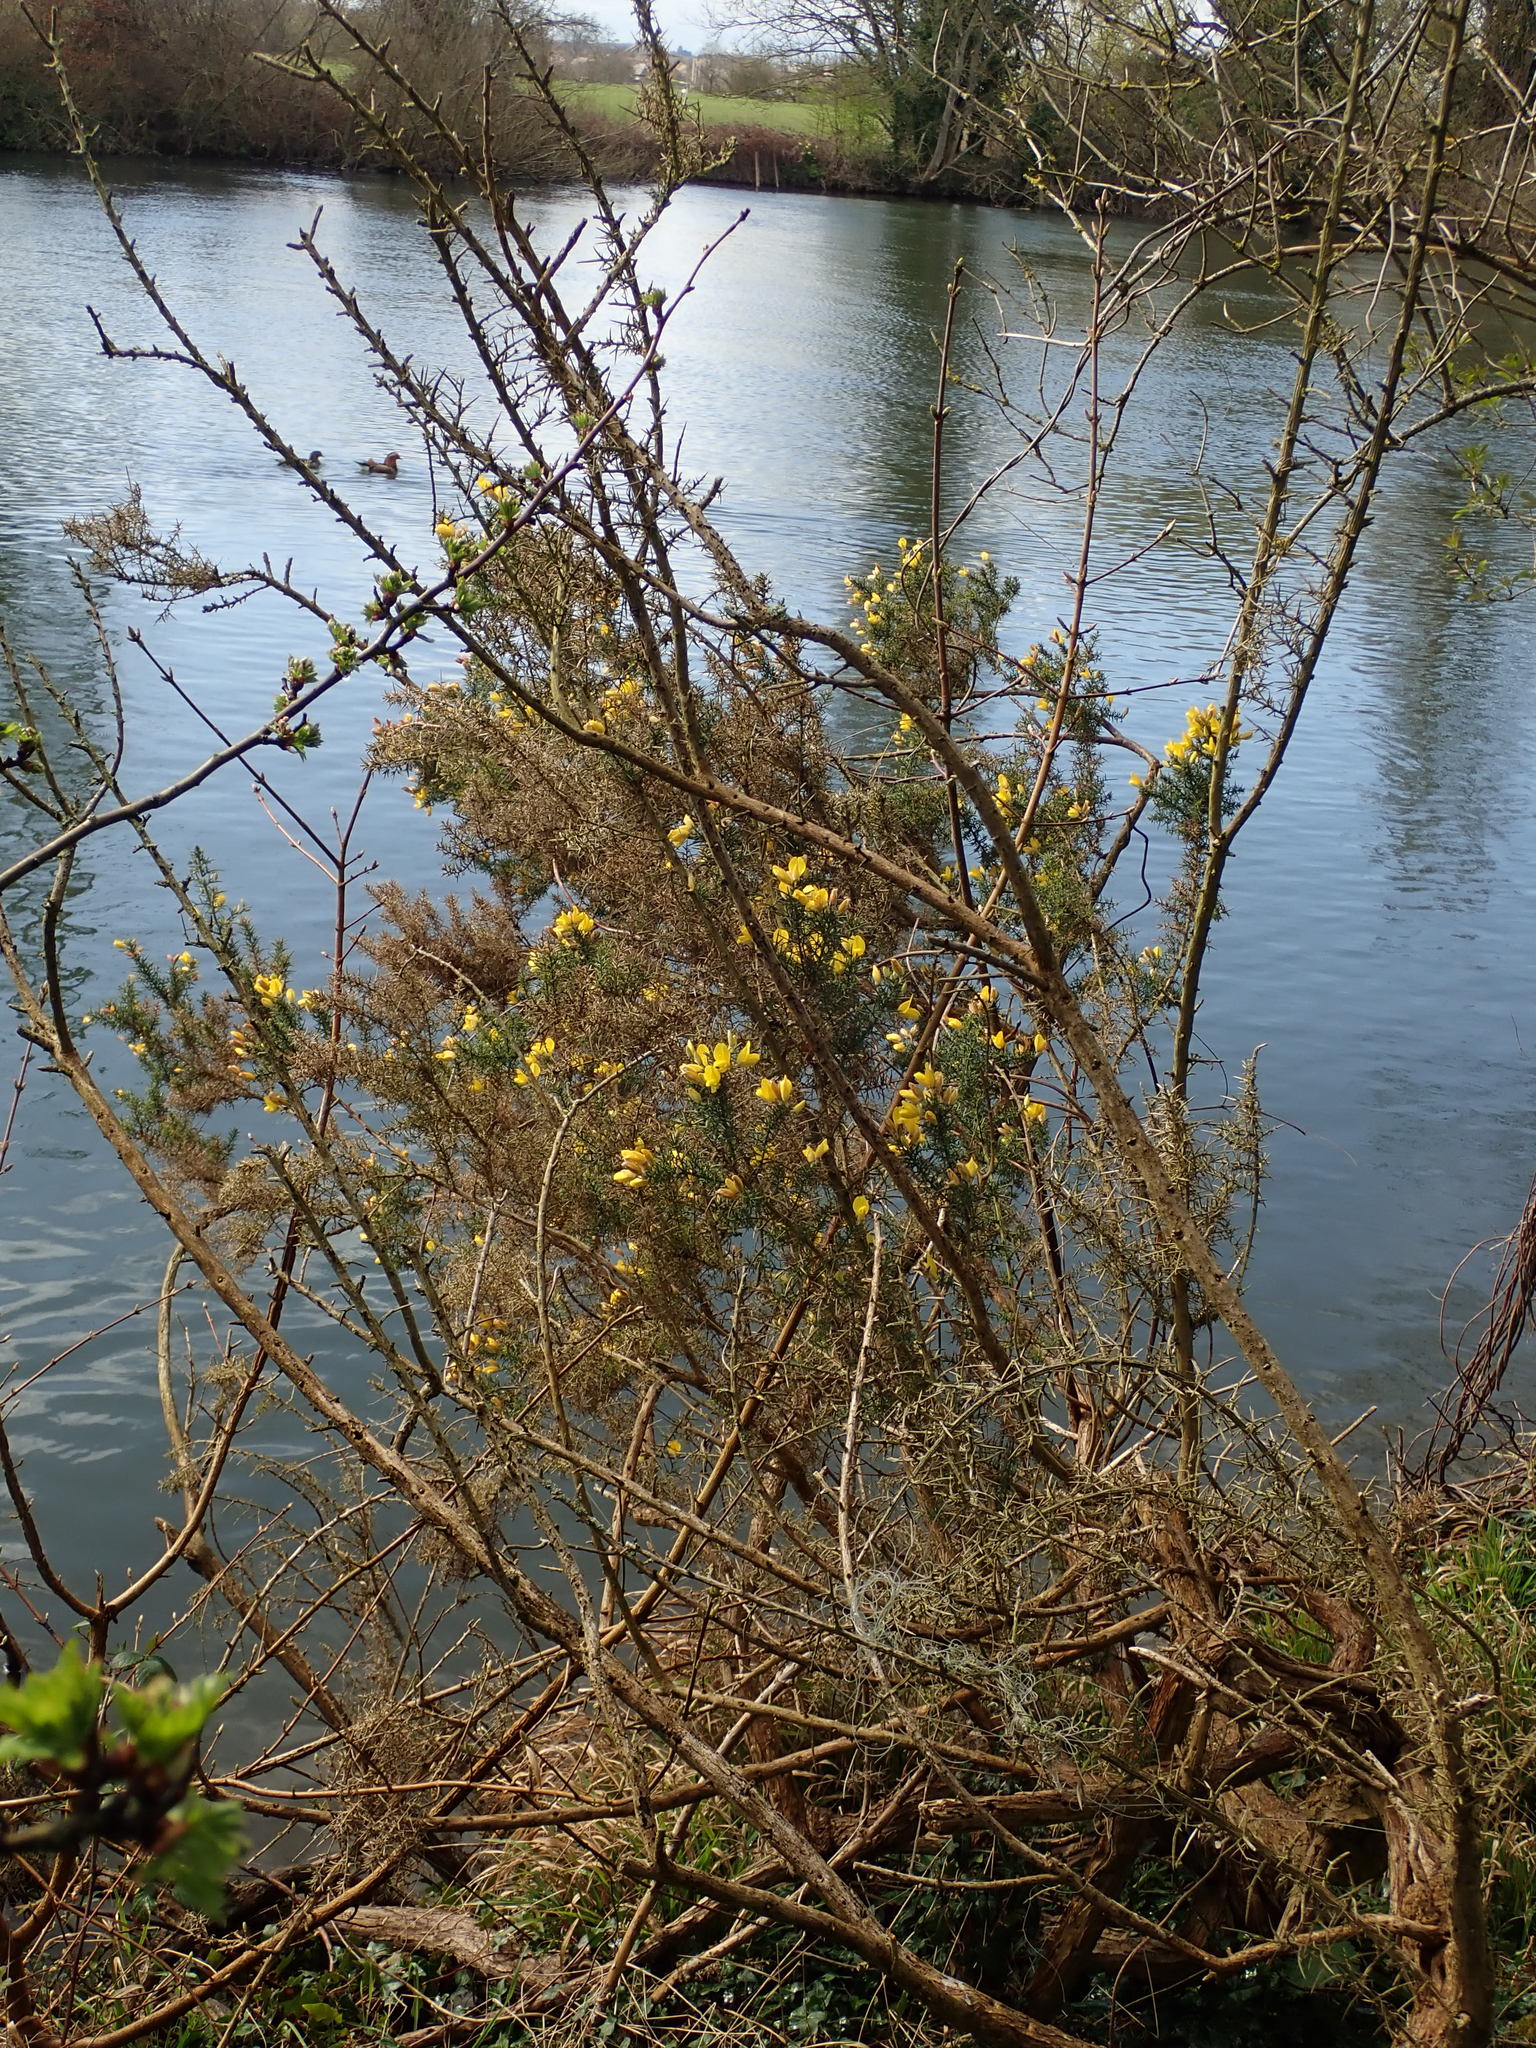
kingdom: Plantae
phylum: Tracheophyta
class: Magnoliopsida
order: Fabales
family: Fabaceae
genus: Ulex
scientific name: Ulex europaeus
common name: Common gorse
